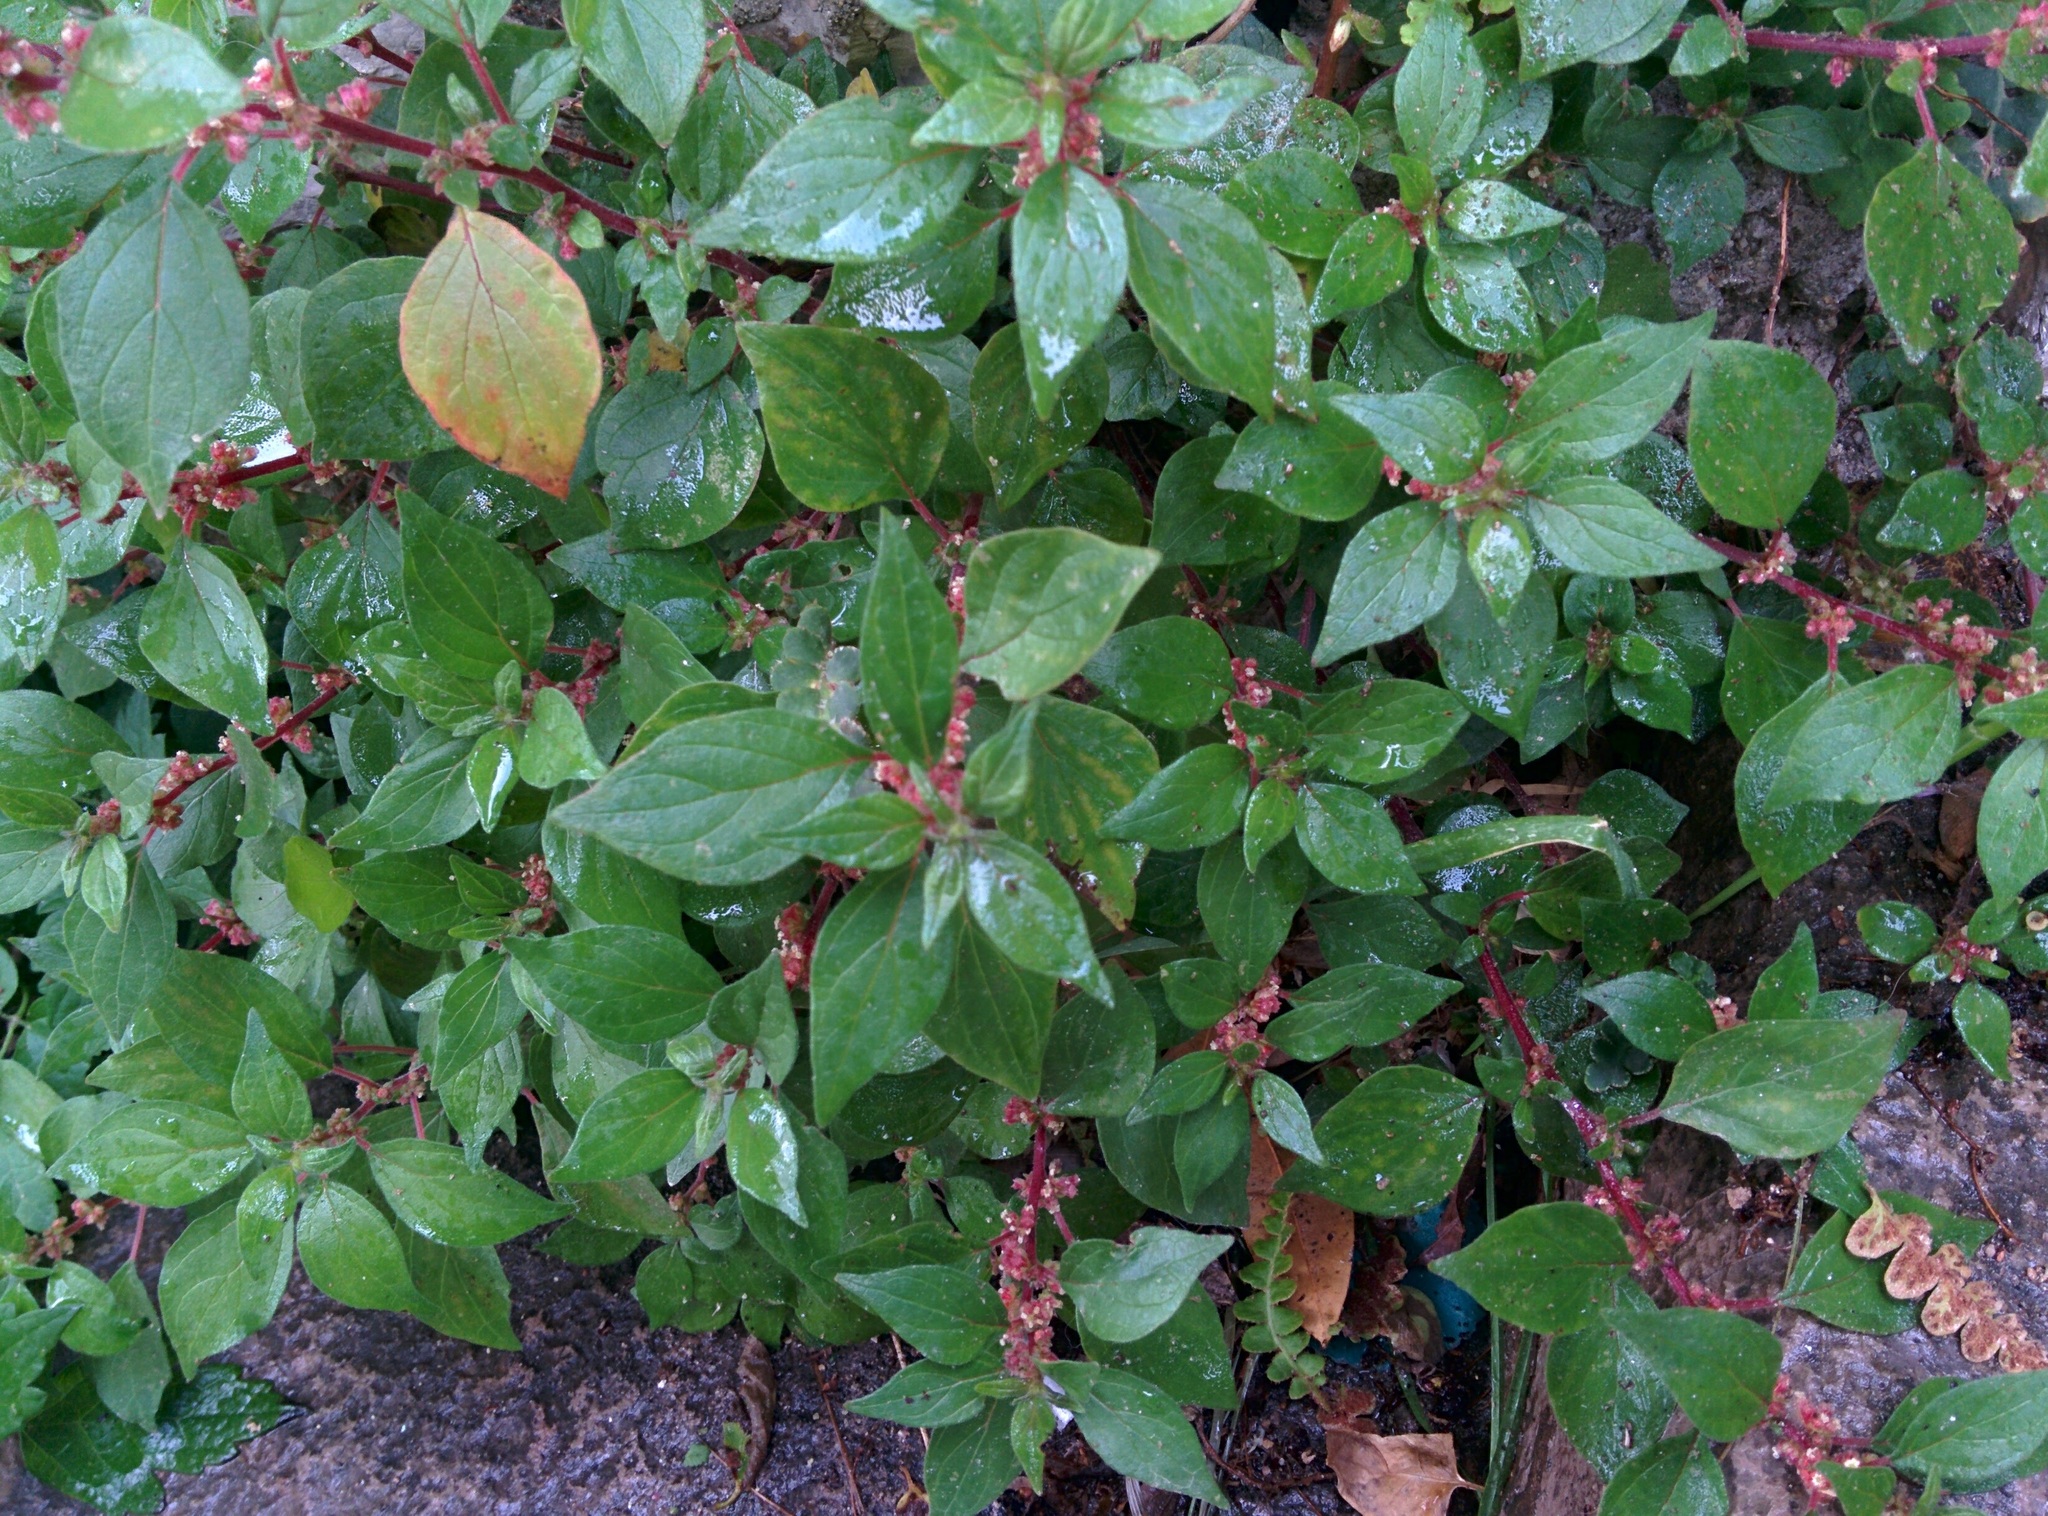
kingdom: Plantae
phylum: Tracheophyta
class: Magnoliopsida
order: Rosales
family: Urticaceae
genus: Parietaria
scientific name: Parietaria judaica
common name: Pellitory-of-the-wall
